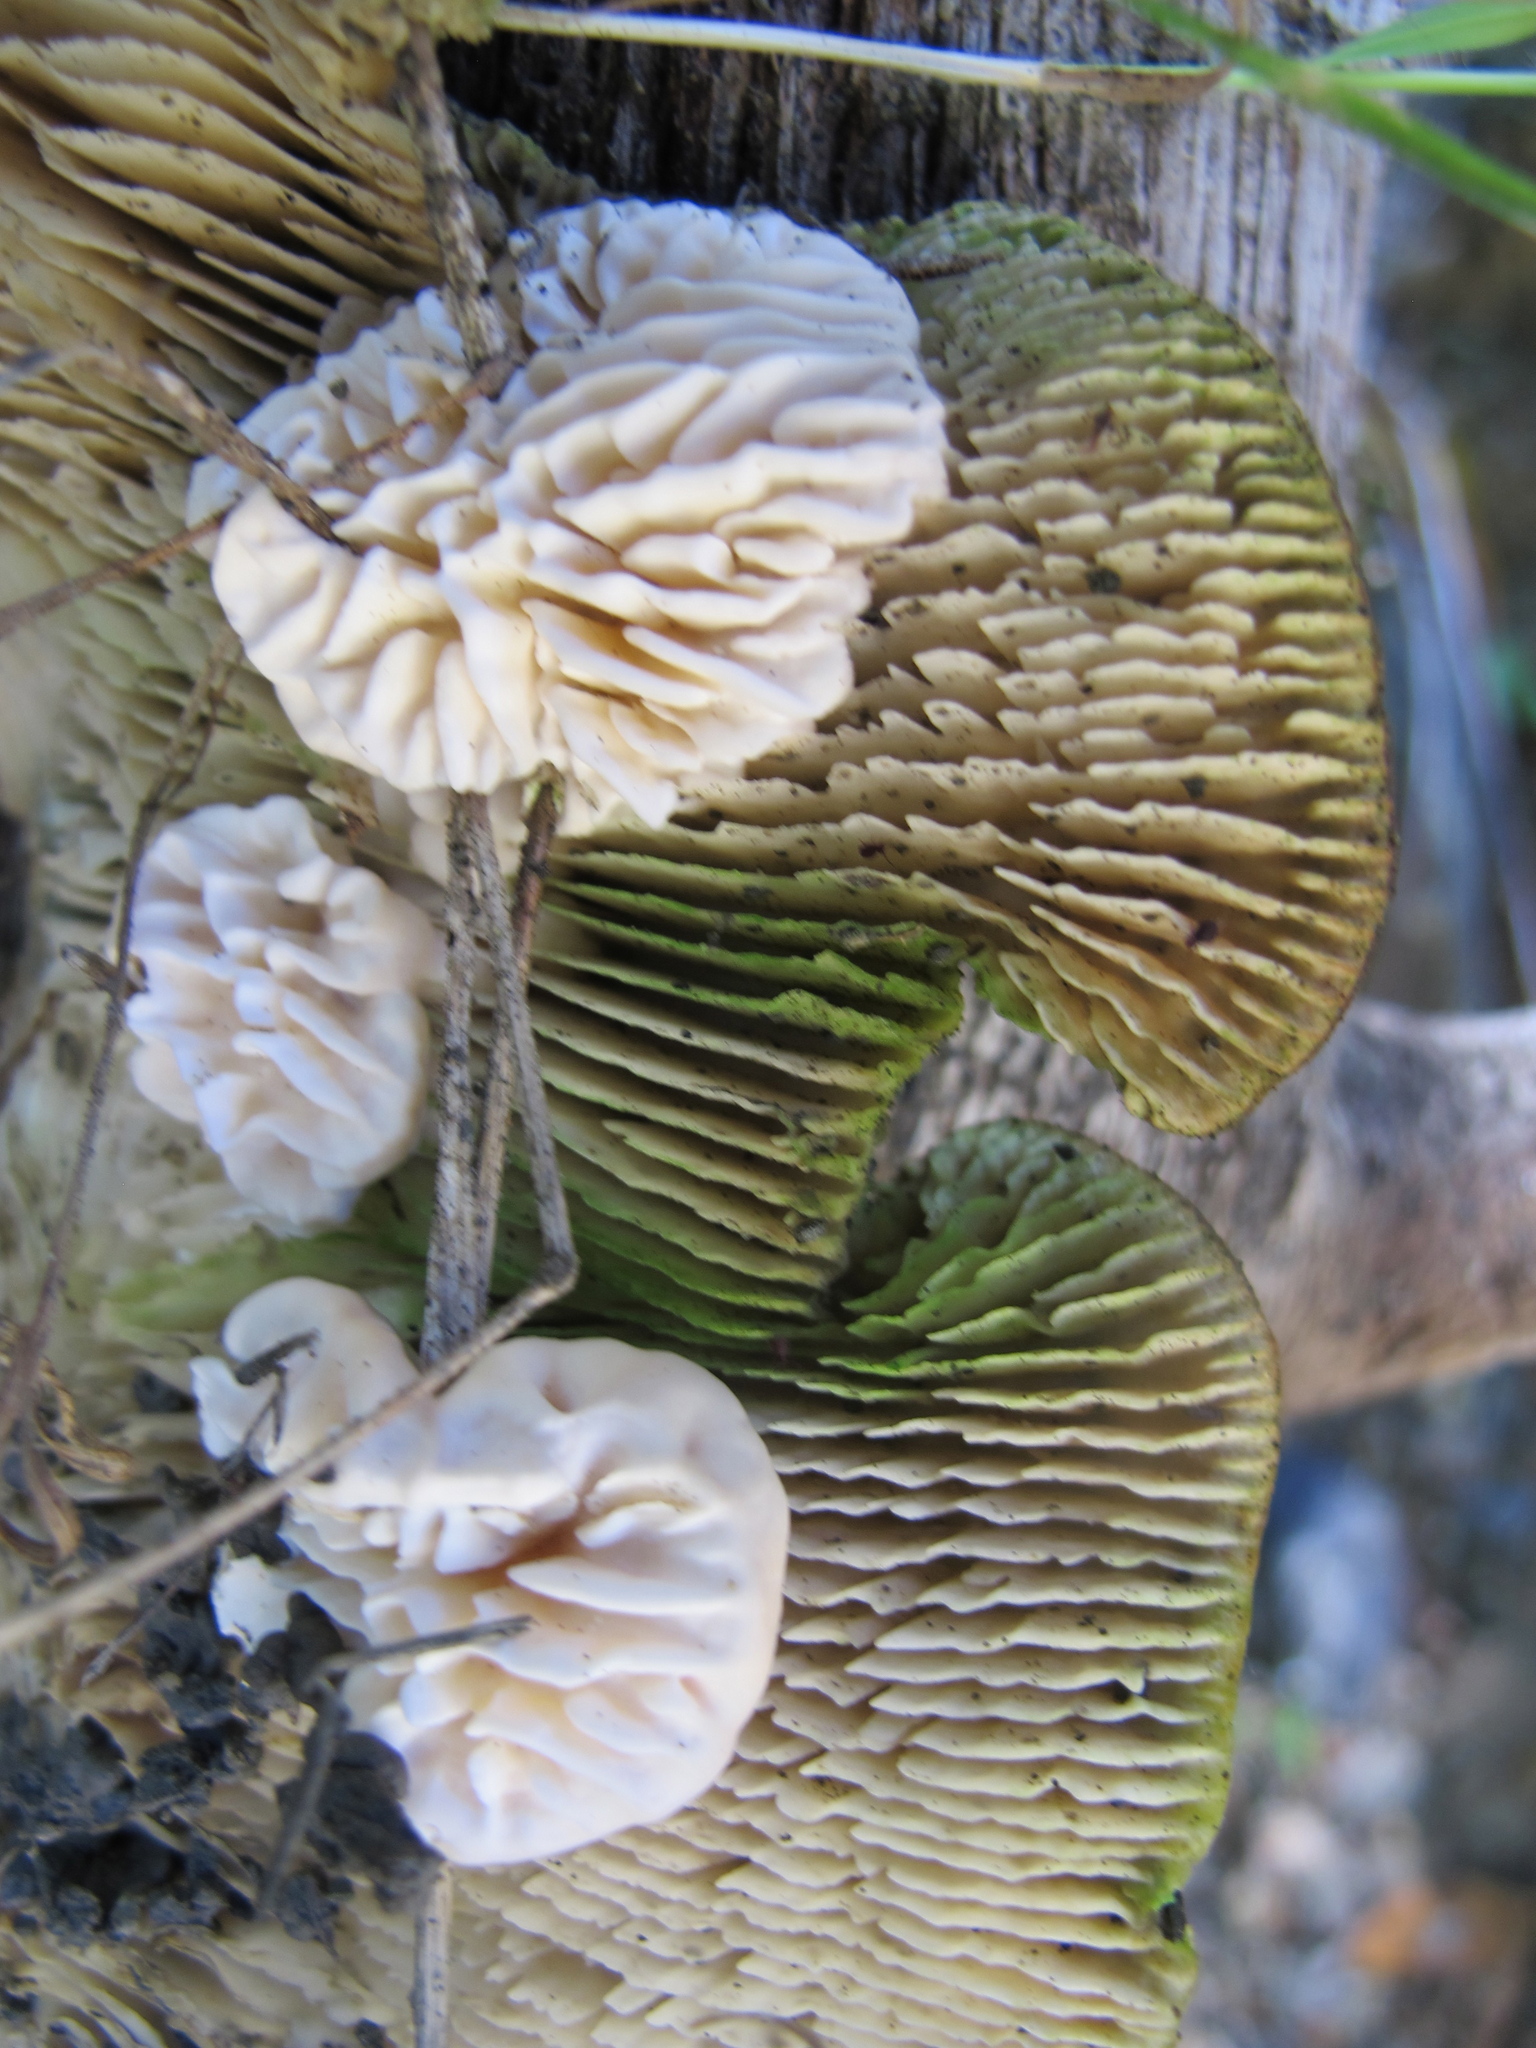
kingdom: Fungi
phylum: Basidiomycota
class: Agaricomycetes
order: Polyporales
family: Polyporaceae
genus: Lenzites
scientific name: Lenzites betulinus
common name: Birch mazegill
